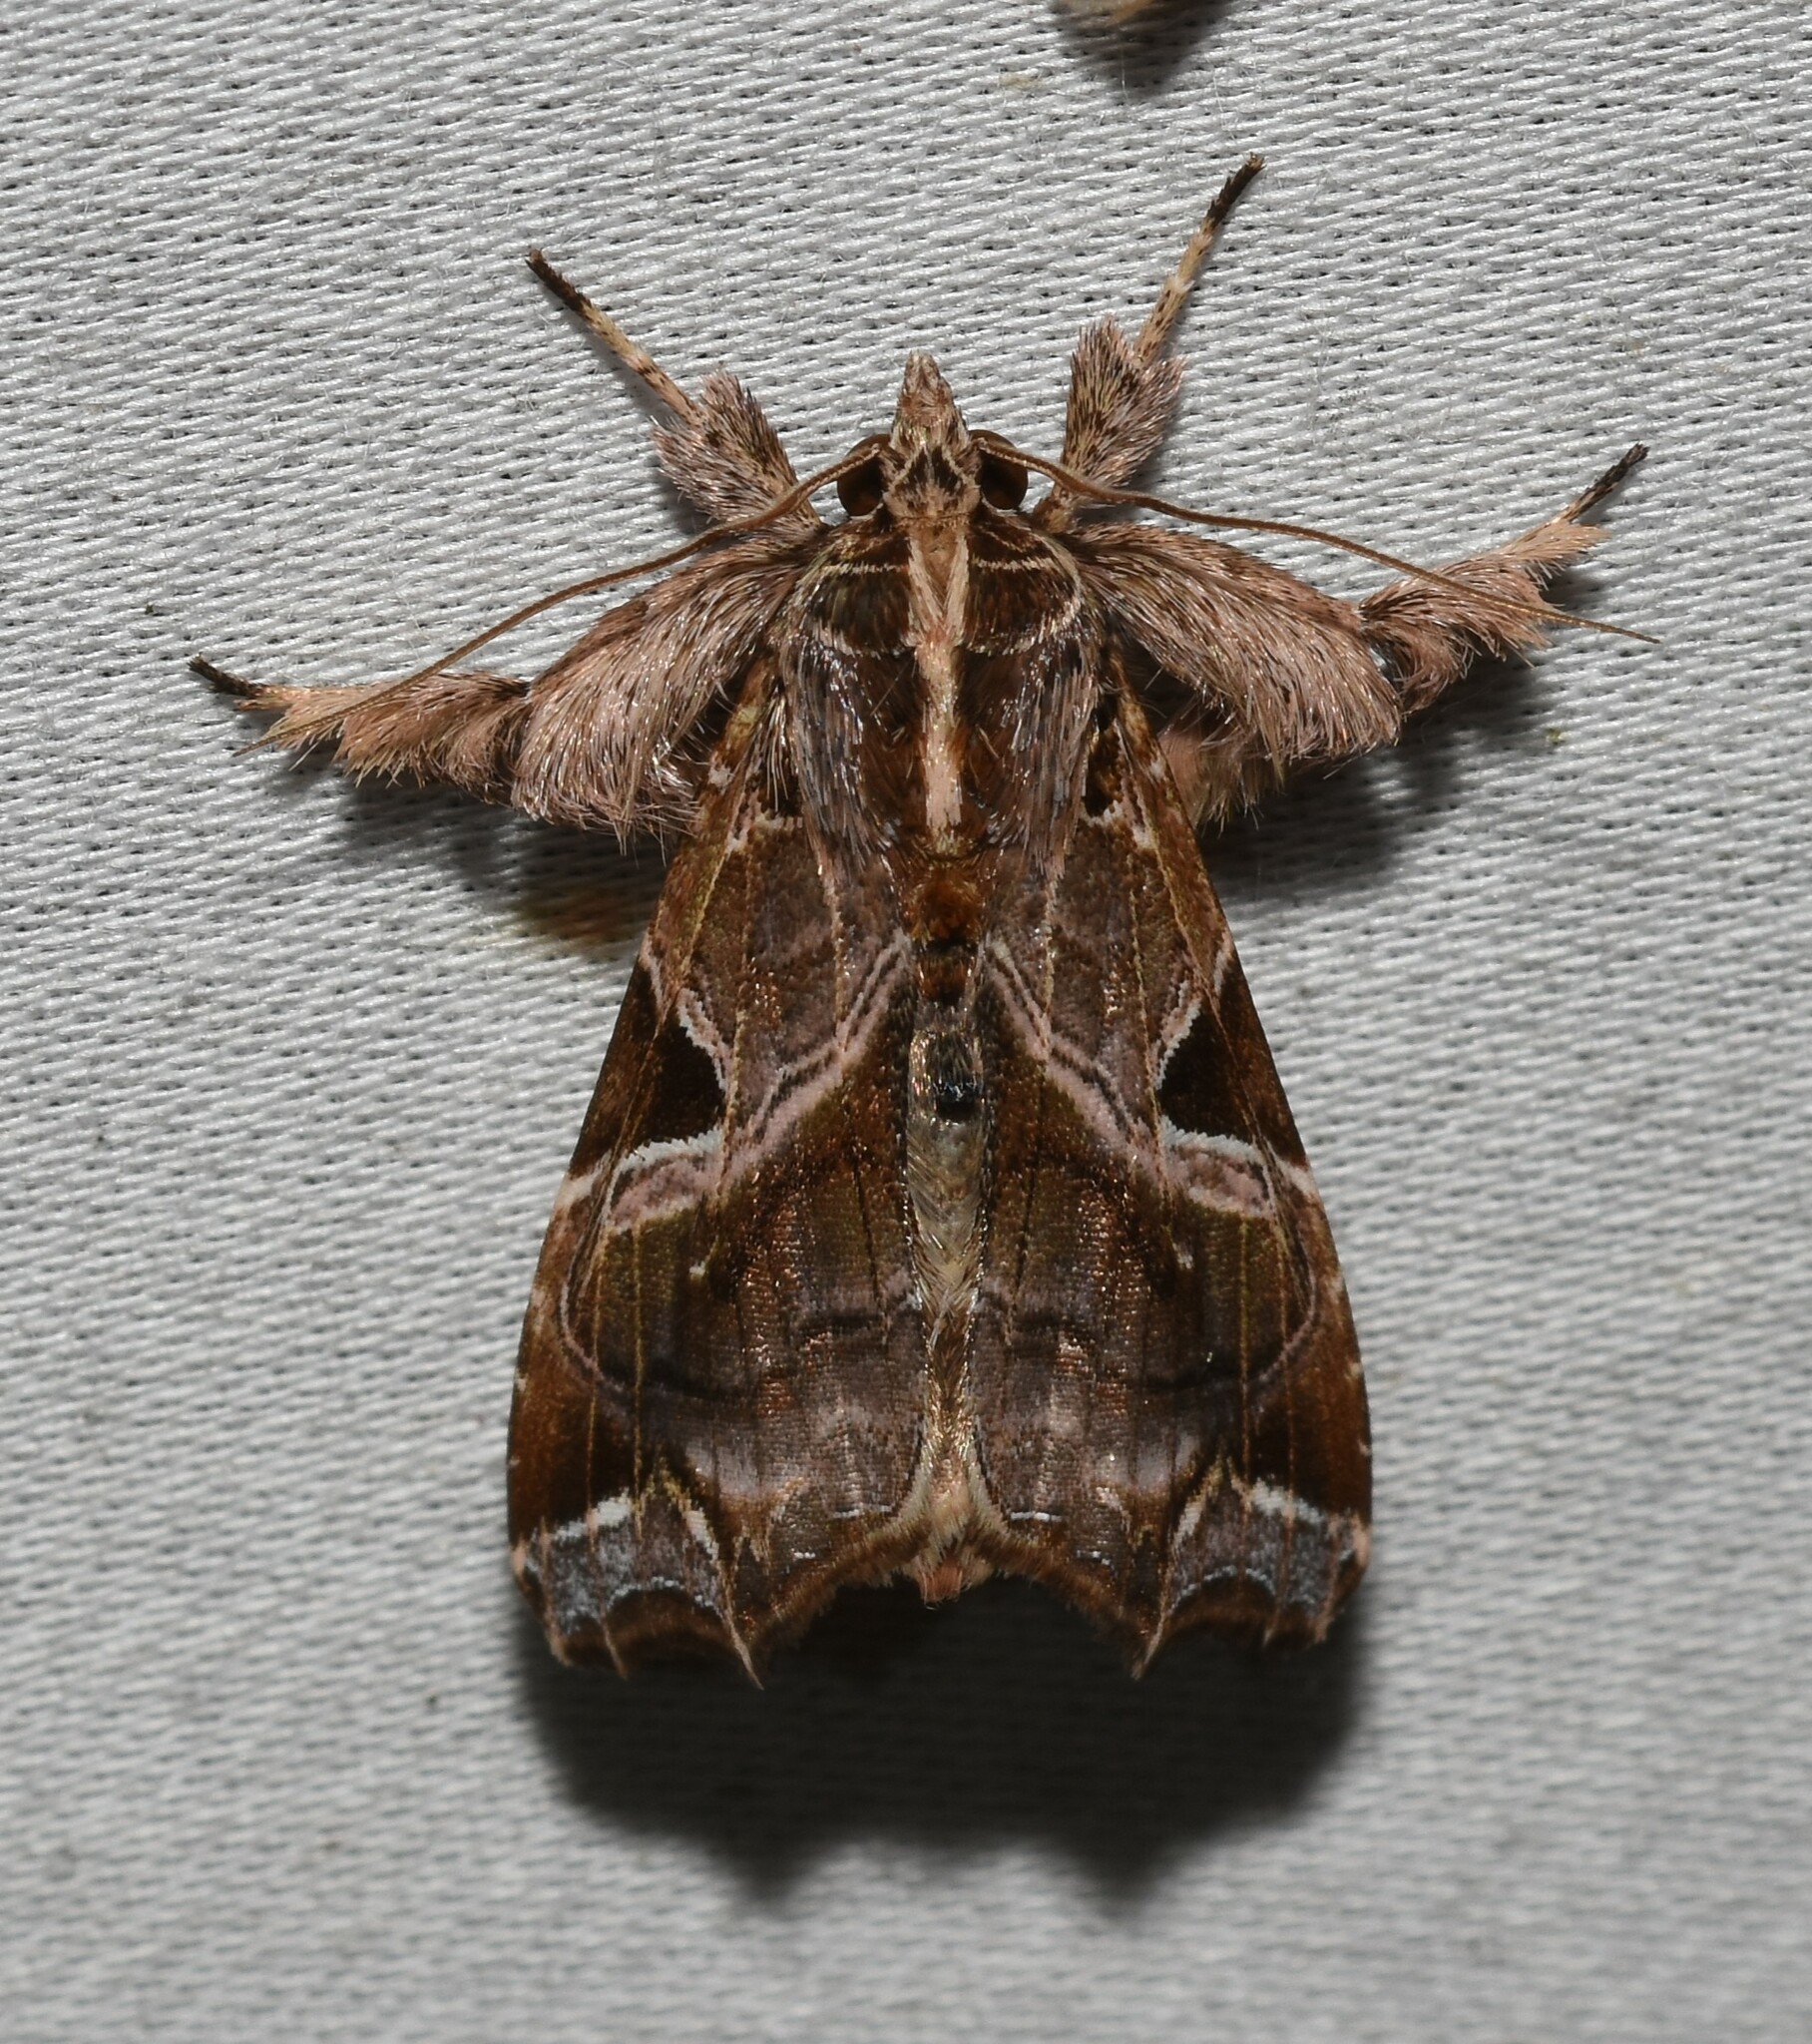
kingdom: Animalia
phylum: Arthropoda
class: Insecta
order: Lepidoptera
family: Noctuidae
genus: Callopistria
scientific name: Callopistria floridensis
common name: Florida fern moth
